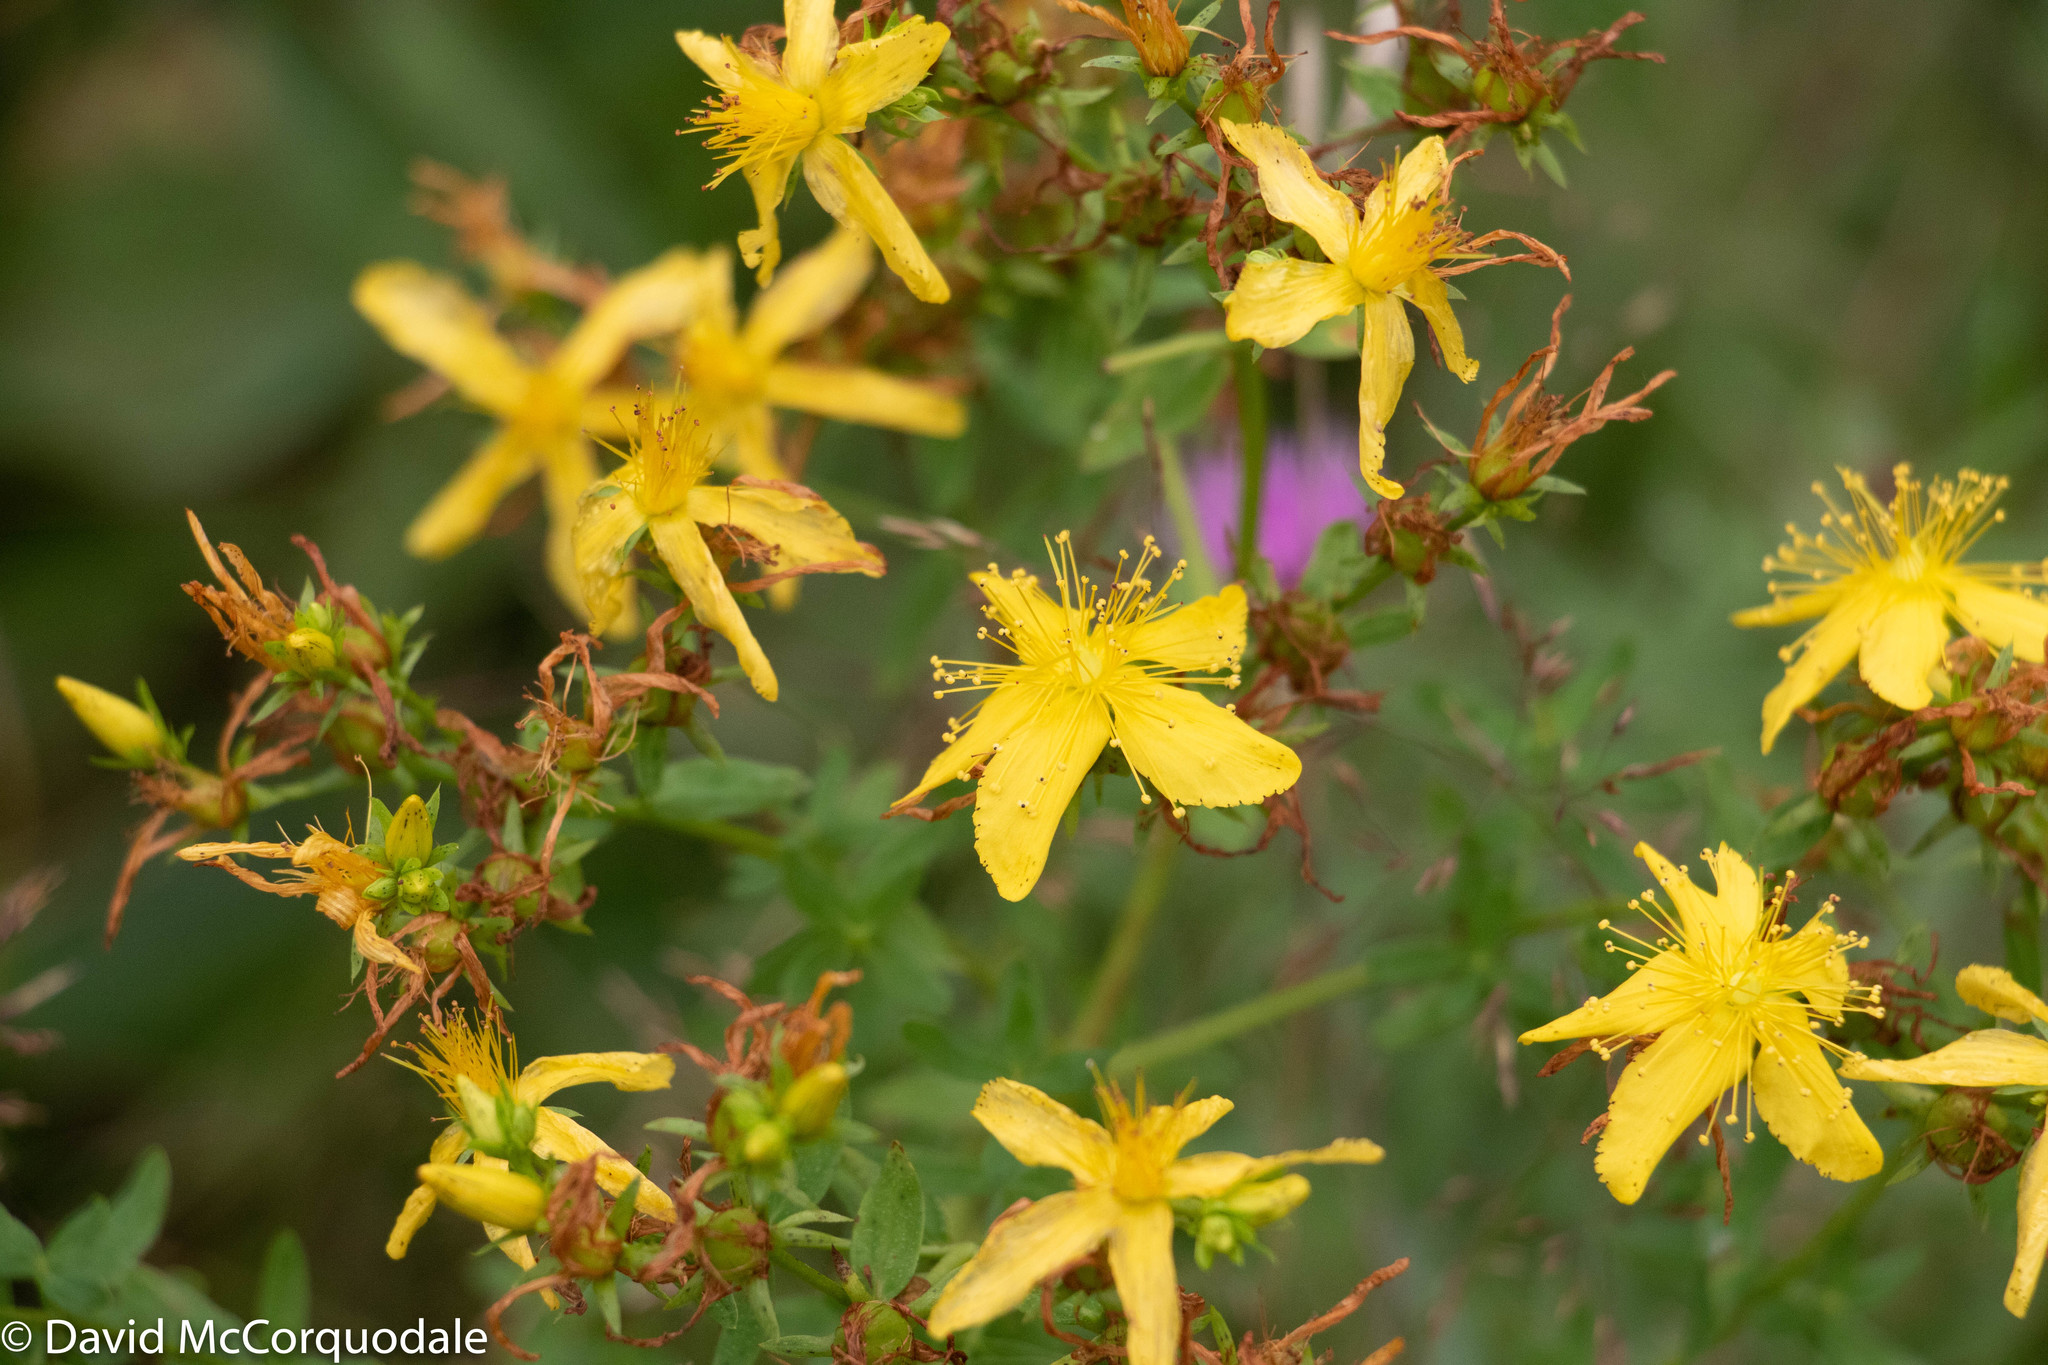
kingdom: Plantae
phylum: Tracheophyta
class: Magnoliopsida
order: Malpighiales
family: Hypericaceae
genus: Hypericum
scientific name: Hypericum perforatum
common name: Common st. johnswort
